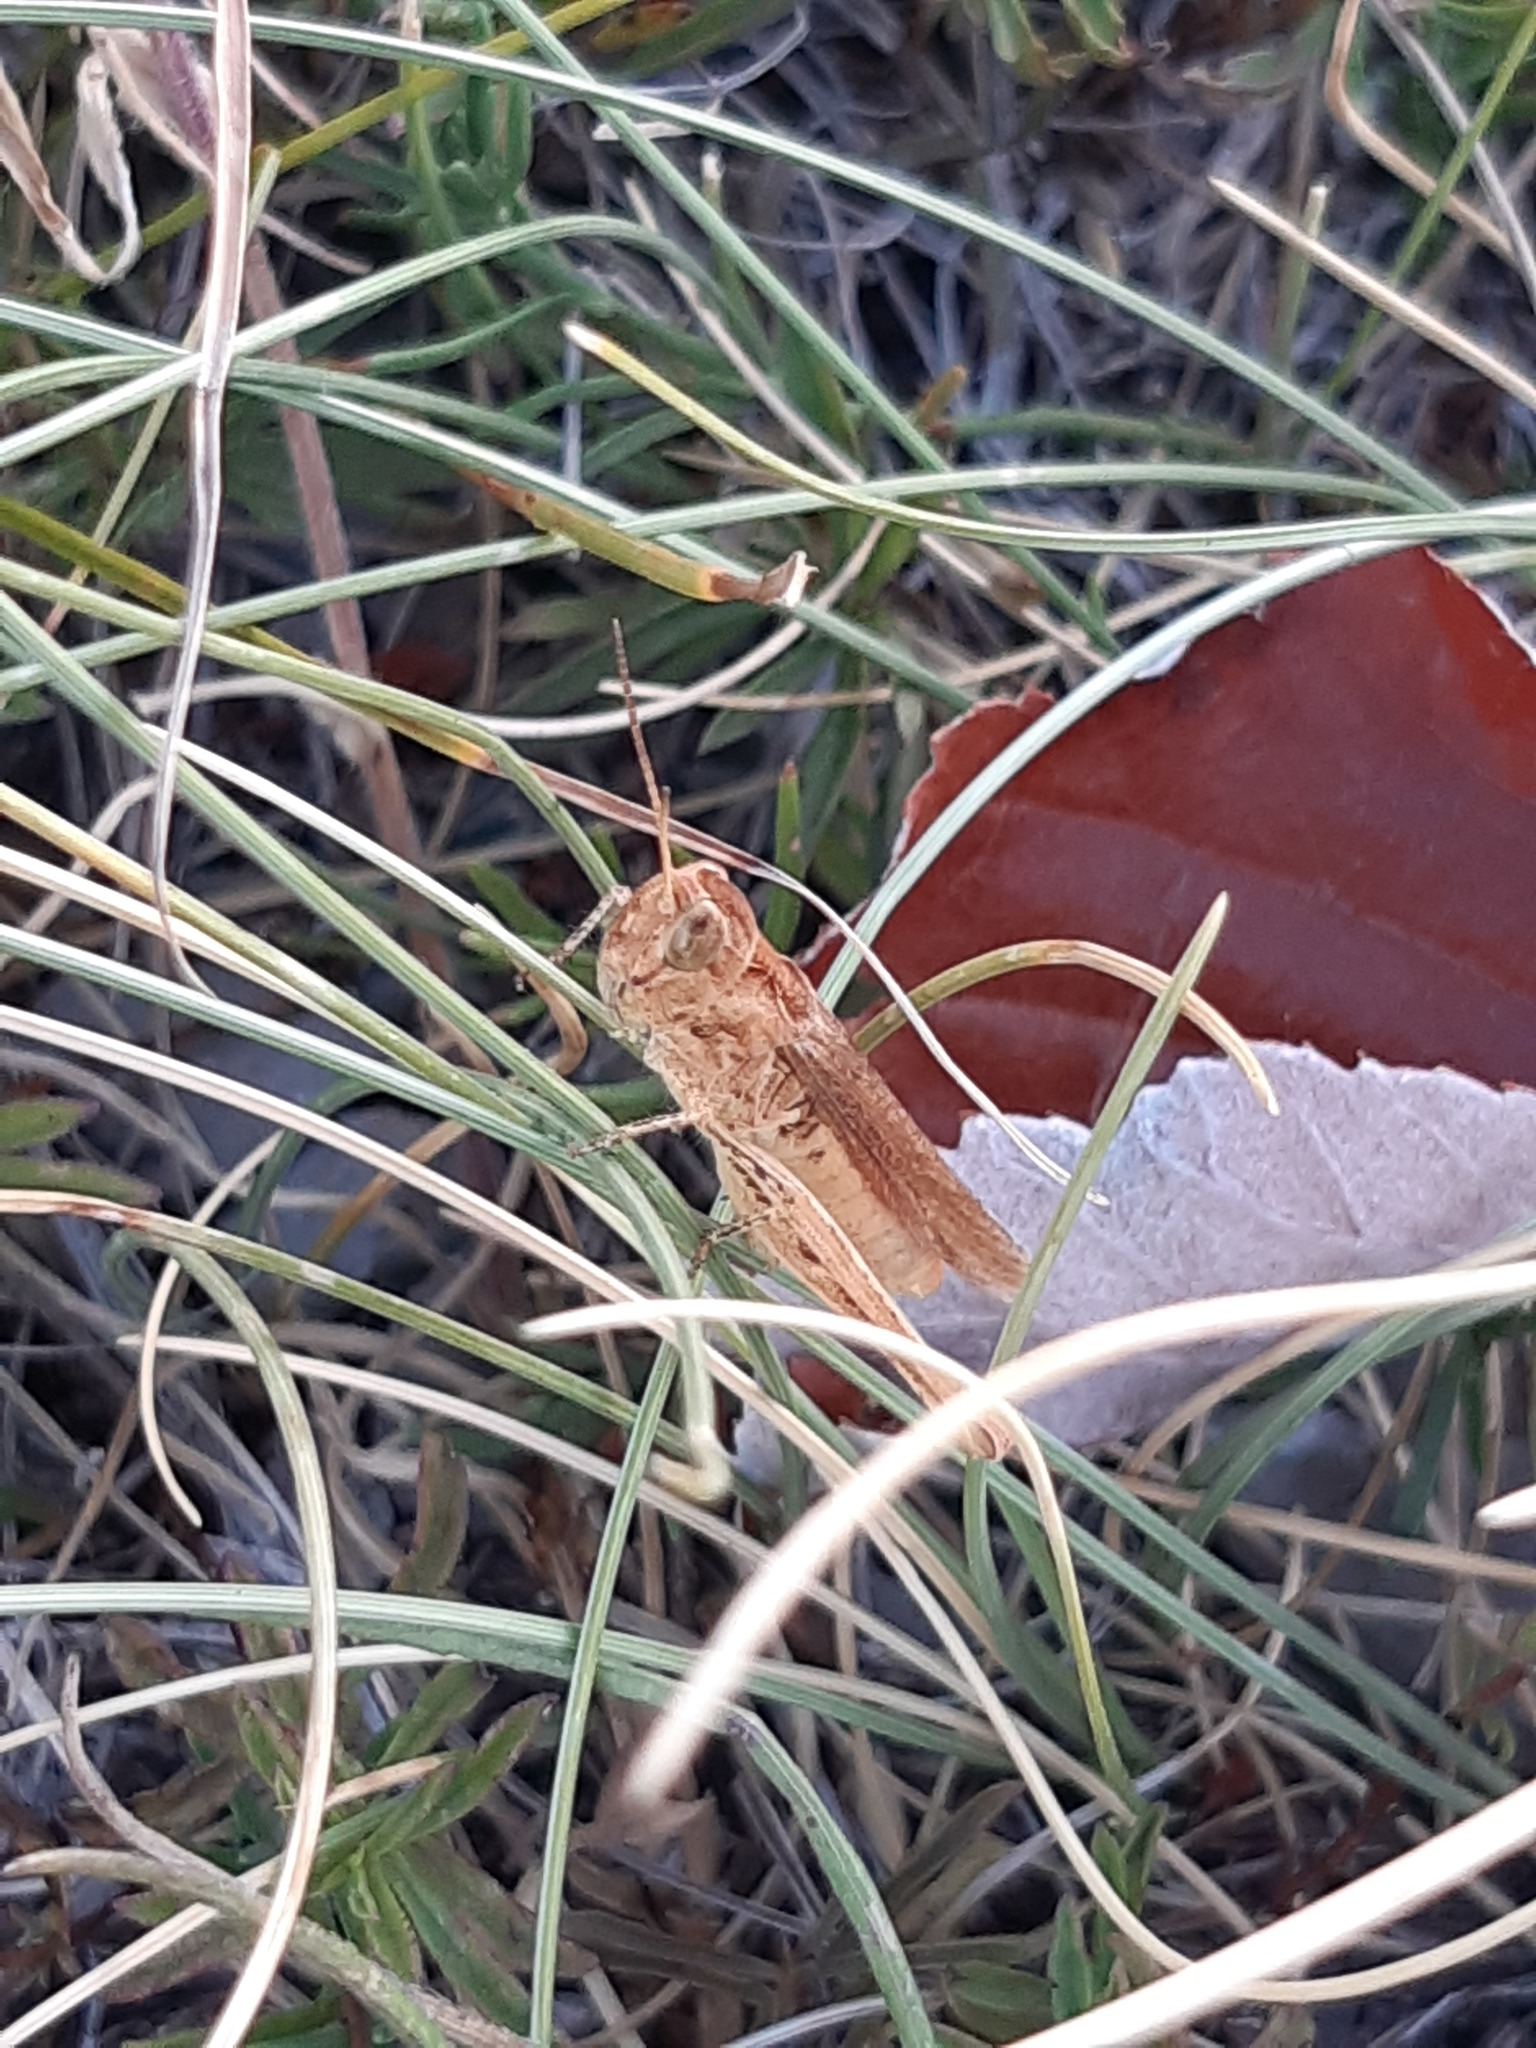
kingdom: Animalia
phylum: Arthropoda
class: Insecta
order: Orthoptera
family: Acrididae
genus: Chorthippus
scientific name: Chorthippus mollis
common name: Lesser field grasshopper
